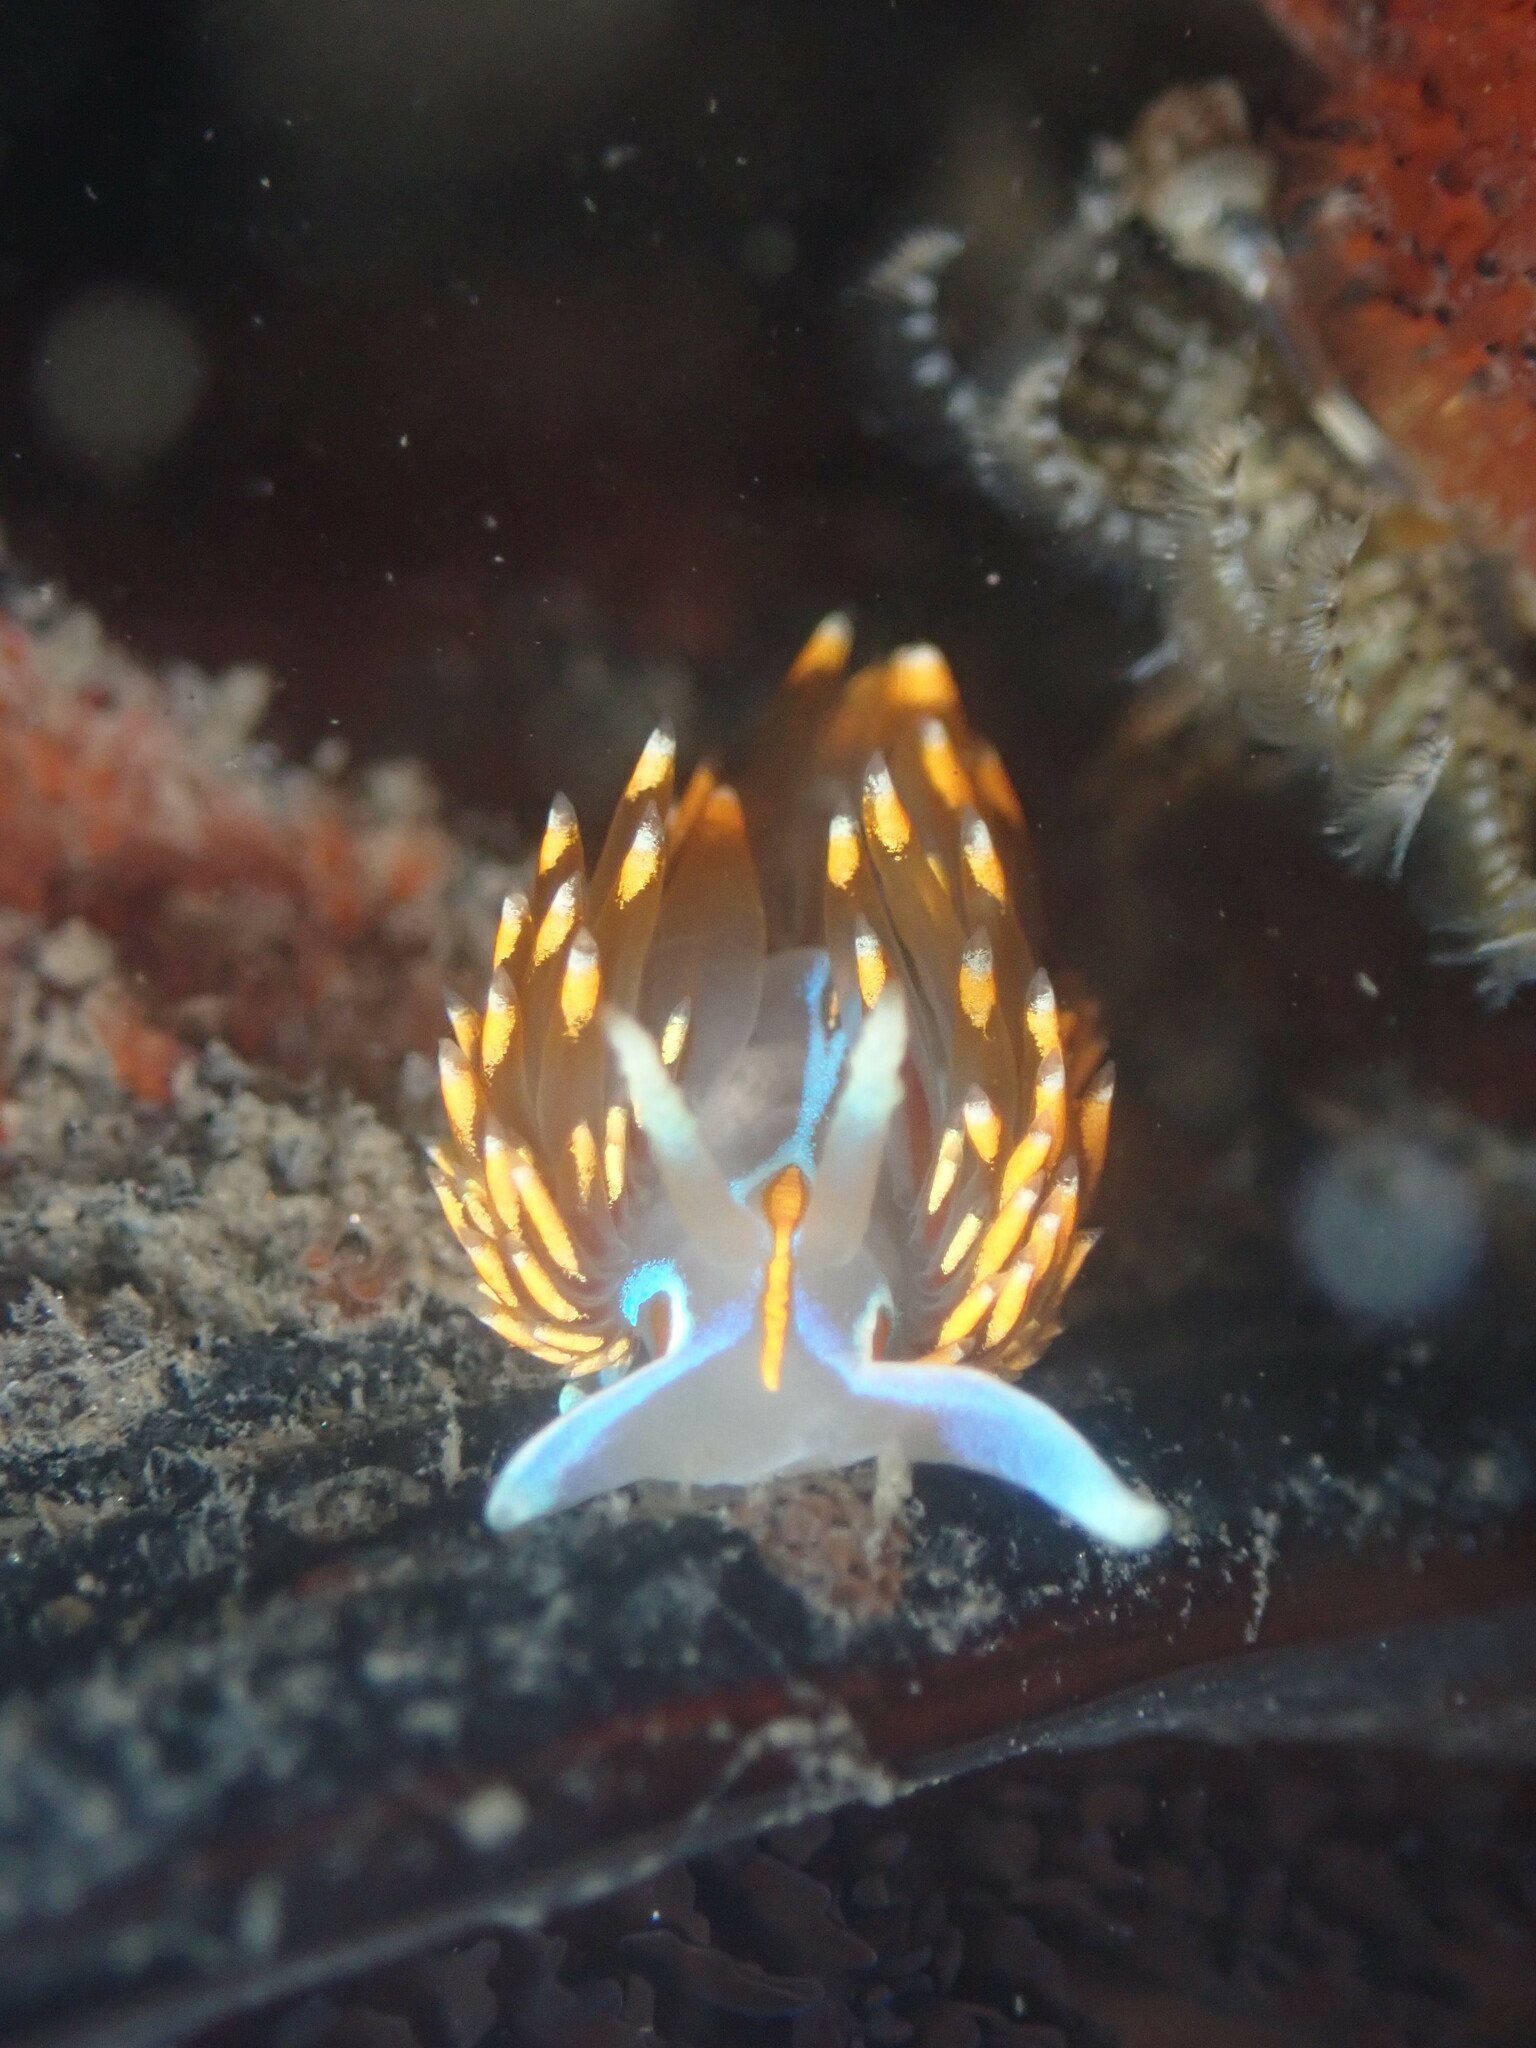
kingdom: Animalia
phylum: Mollusca
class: Gastropoda
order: Nudibranchia
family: Myrrhinidae
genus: Hermissenda
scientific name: Hermissenda opalescens
